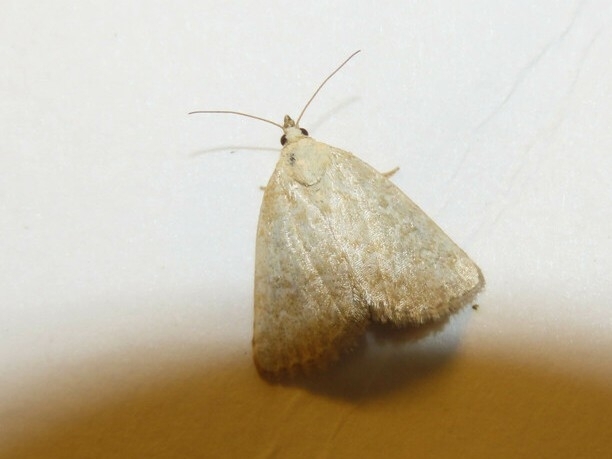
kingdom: Animalia
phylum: Arthropoda
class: Insecta
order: Lepidoptera
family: Noctuidae
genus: Protodeltote
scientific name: Protodeltote albidula
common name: Pale glyph
